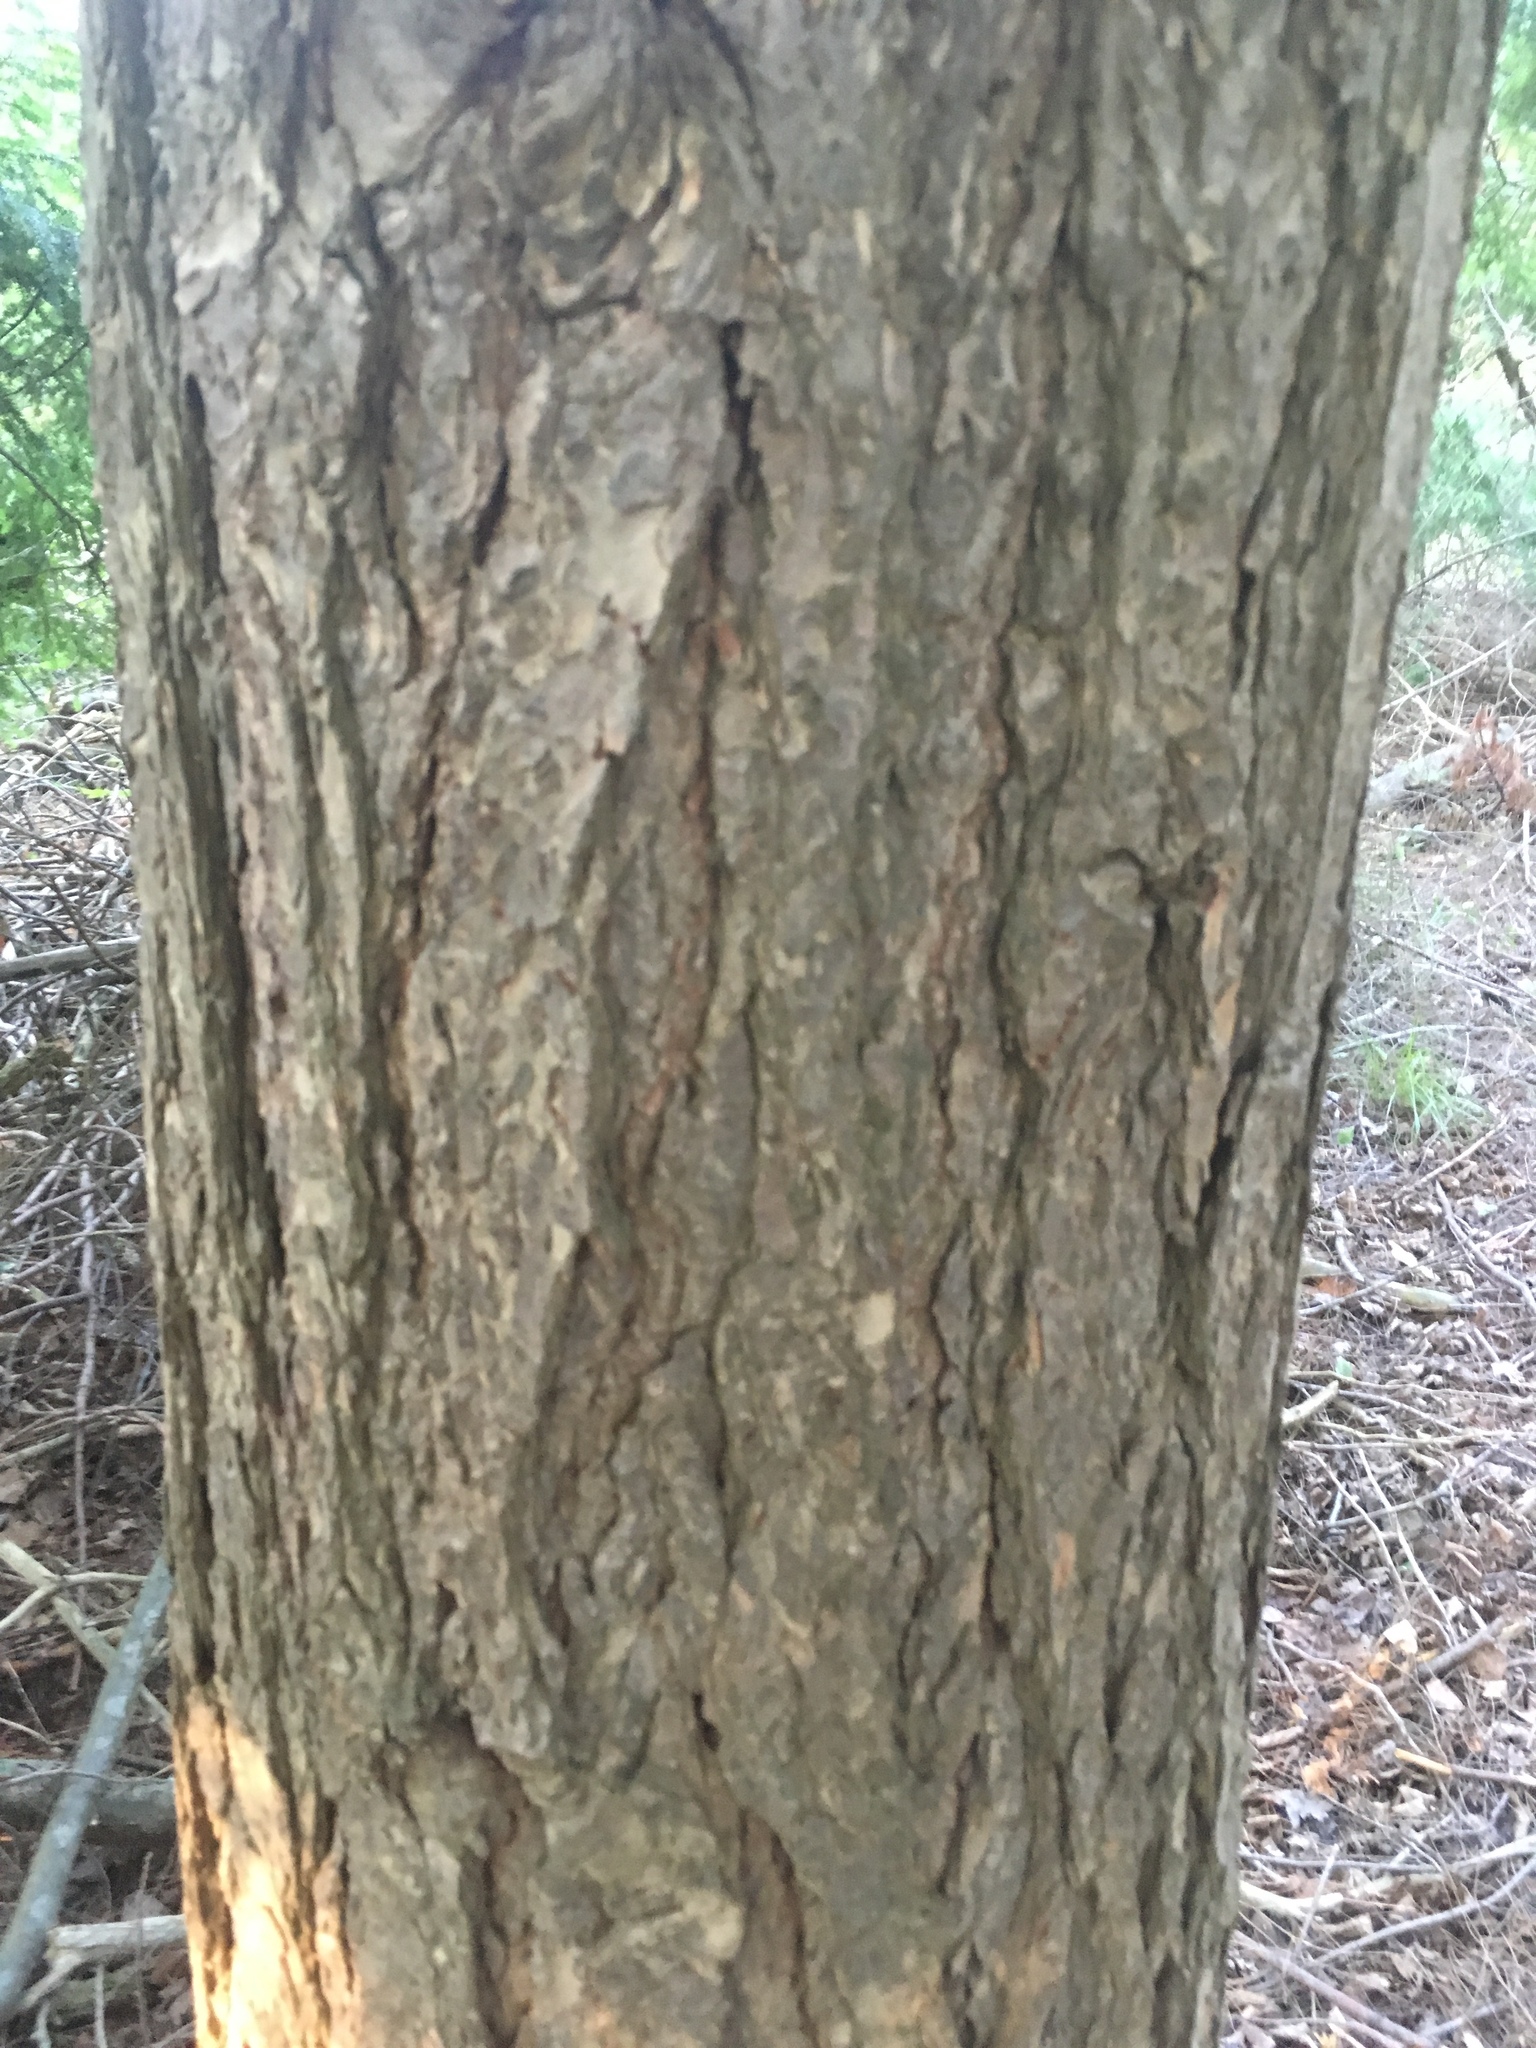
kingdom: Plantae
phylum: Tracheophyta
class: Pinopsida
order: Pinales
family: Pinaceae
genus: Tsuga
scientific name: Tsuga canadensis
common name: Eastern hemlock
